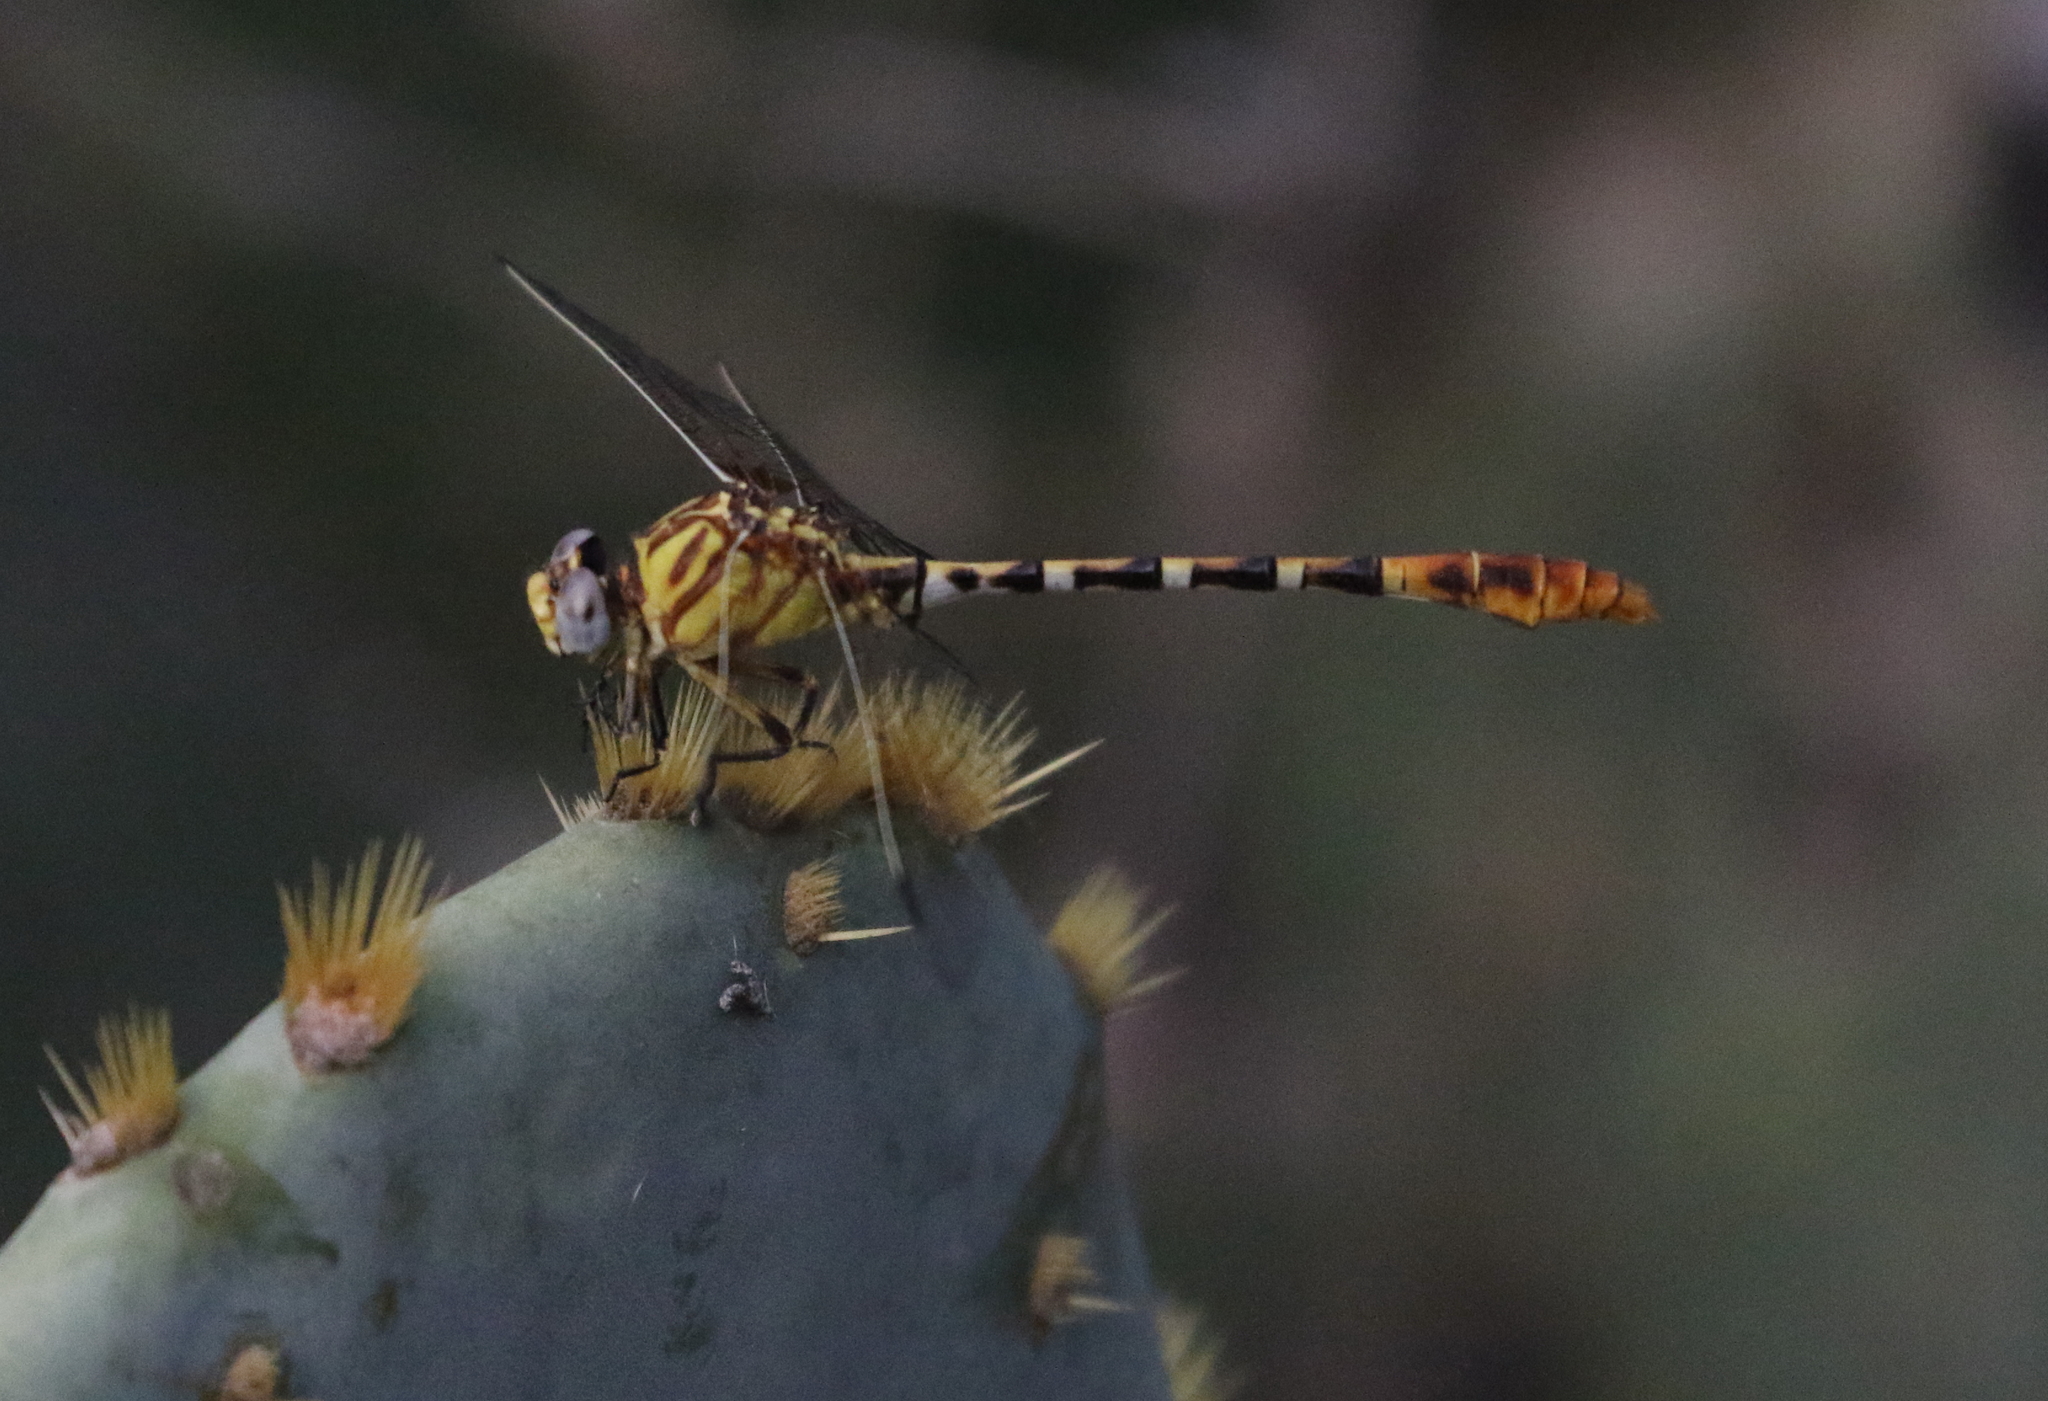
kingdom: Animalia
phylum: Arthropoda
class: Insecta
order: Odonata
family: Gomphidae
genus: Erpetogomphus
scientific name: Erpetogomphus designatus
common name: Eastern ringtail
